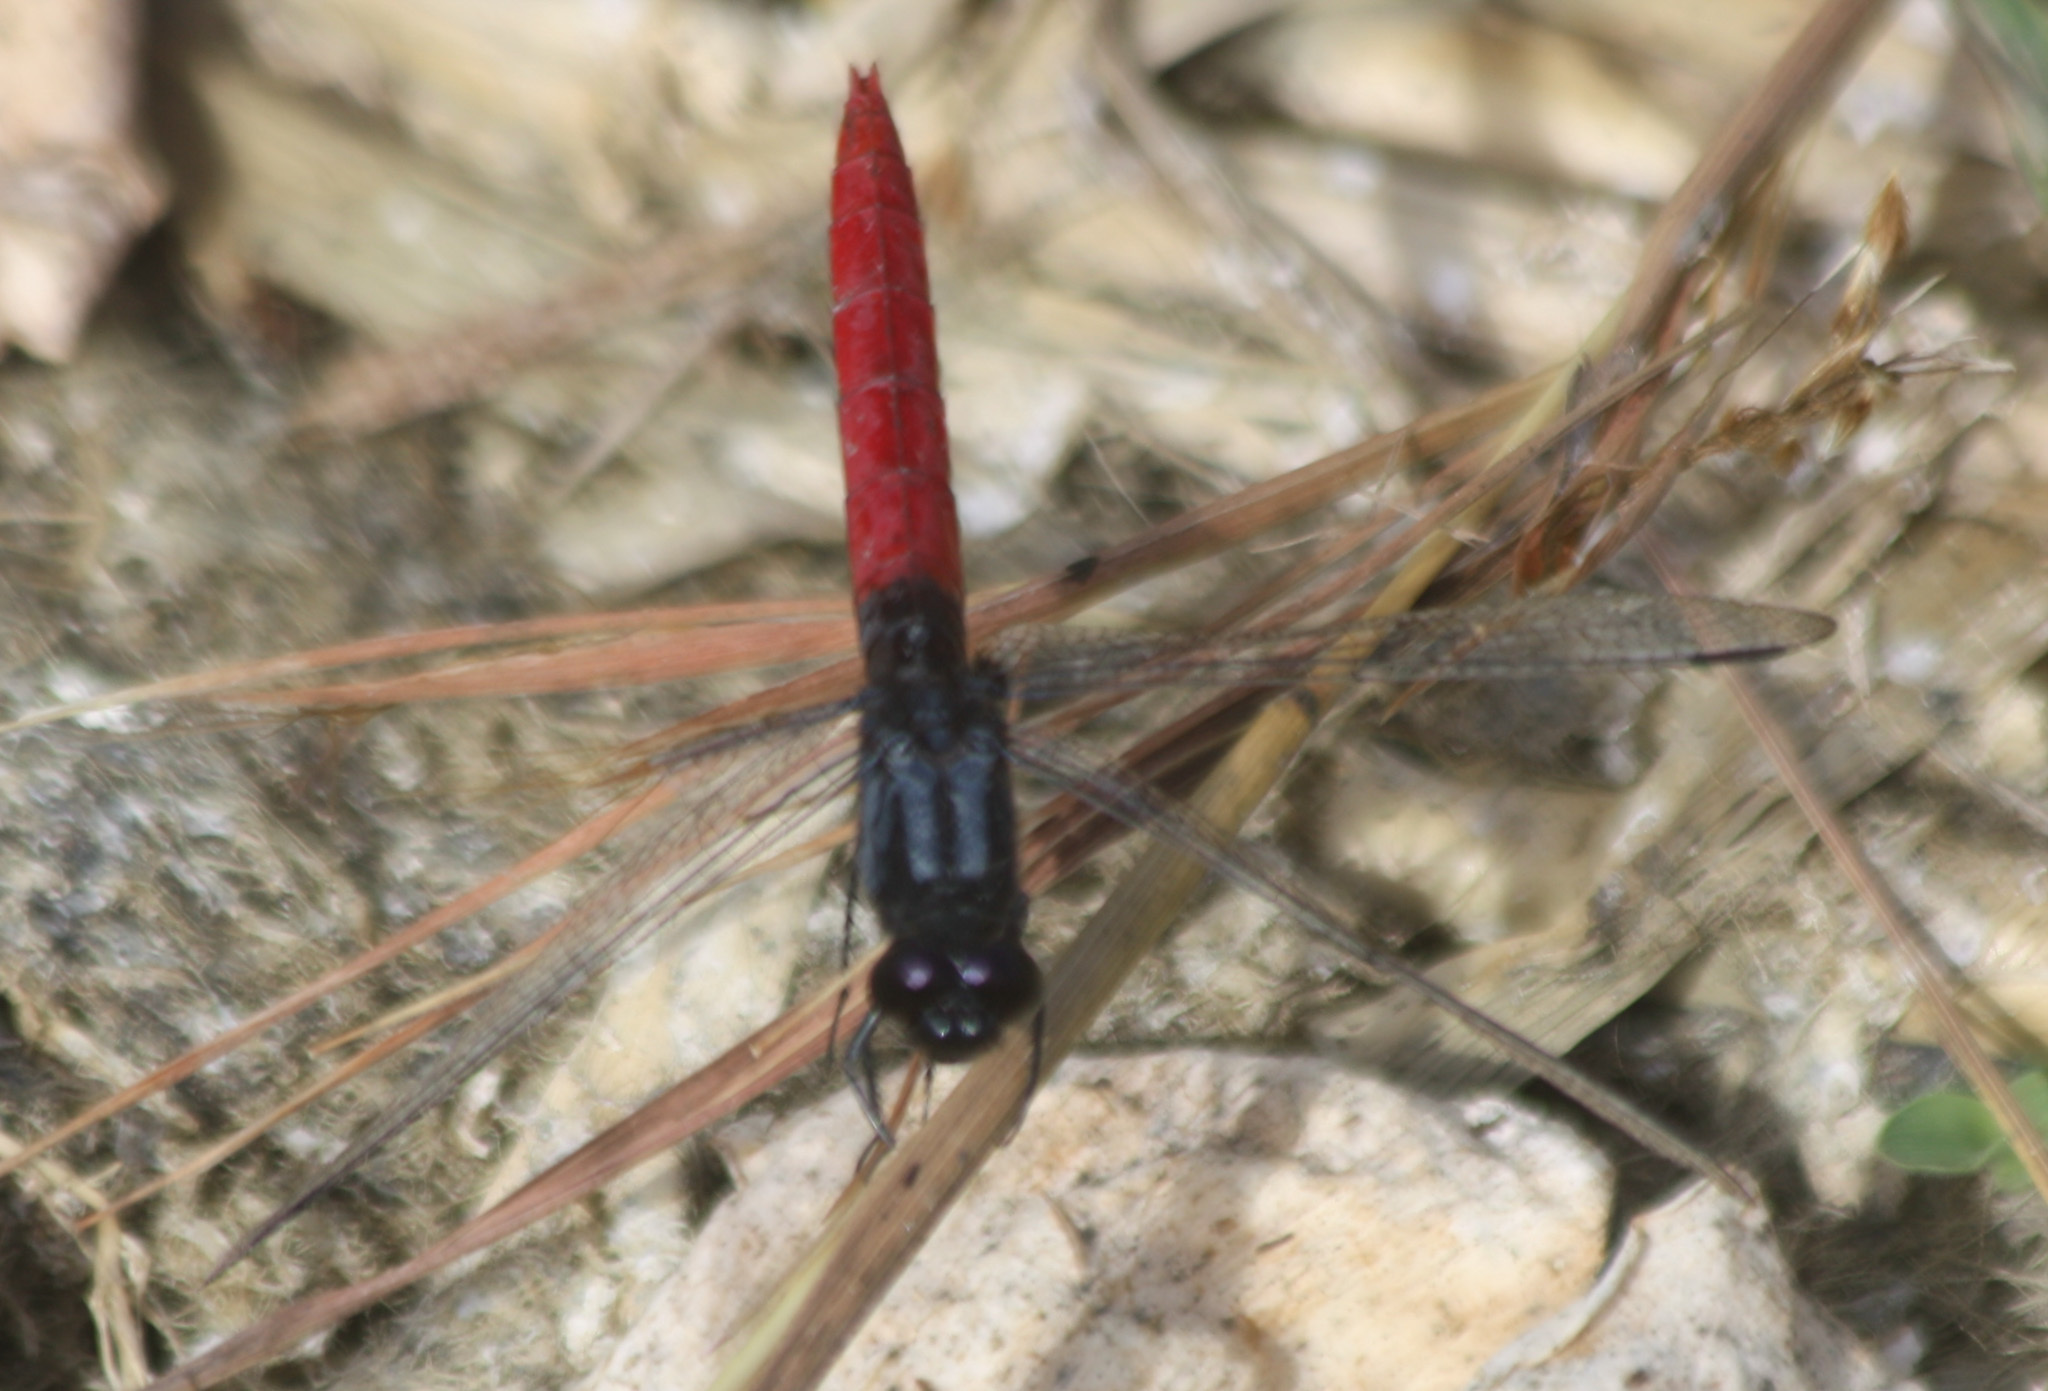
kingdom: Animalia
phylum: Arthropoda
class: Insecta
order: Odonata
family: Libellulidae
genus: Erythemis
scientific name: Erythemis peruviana
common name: Flame-tailed pondhawk
